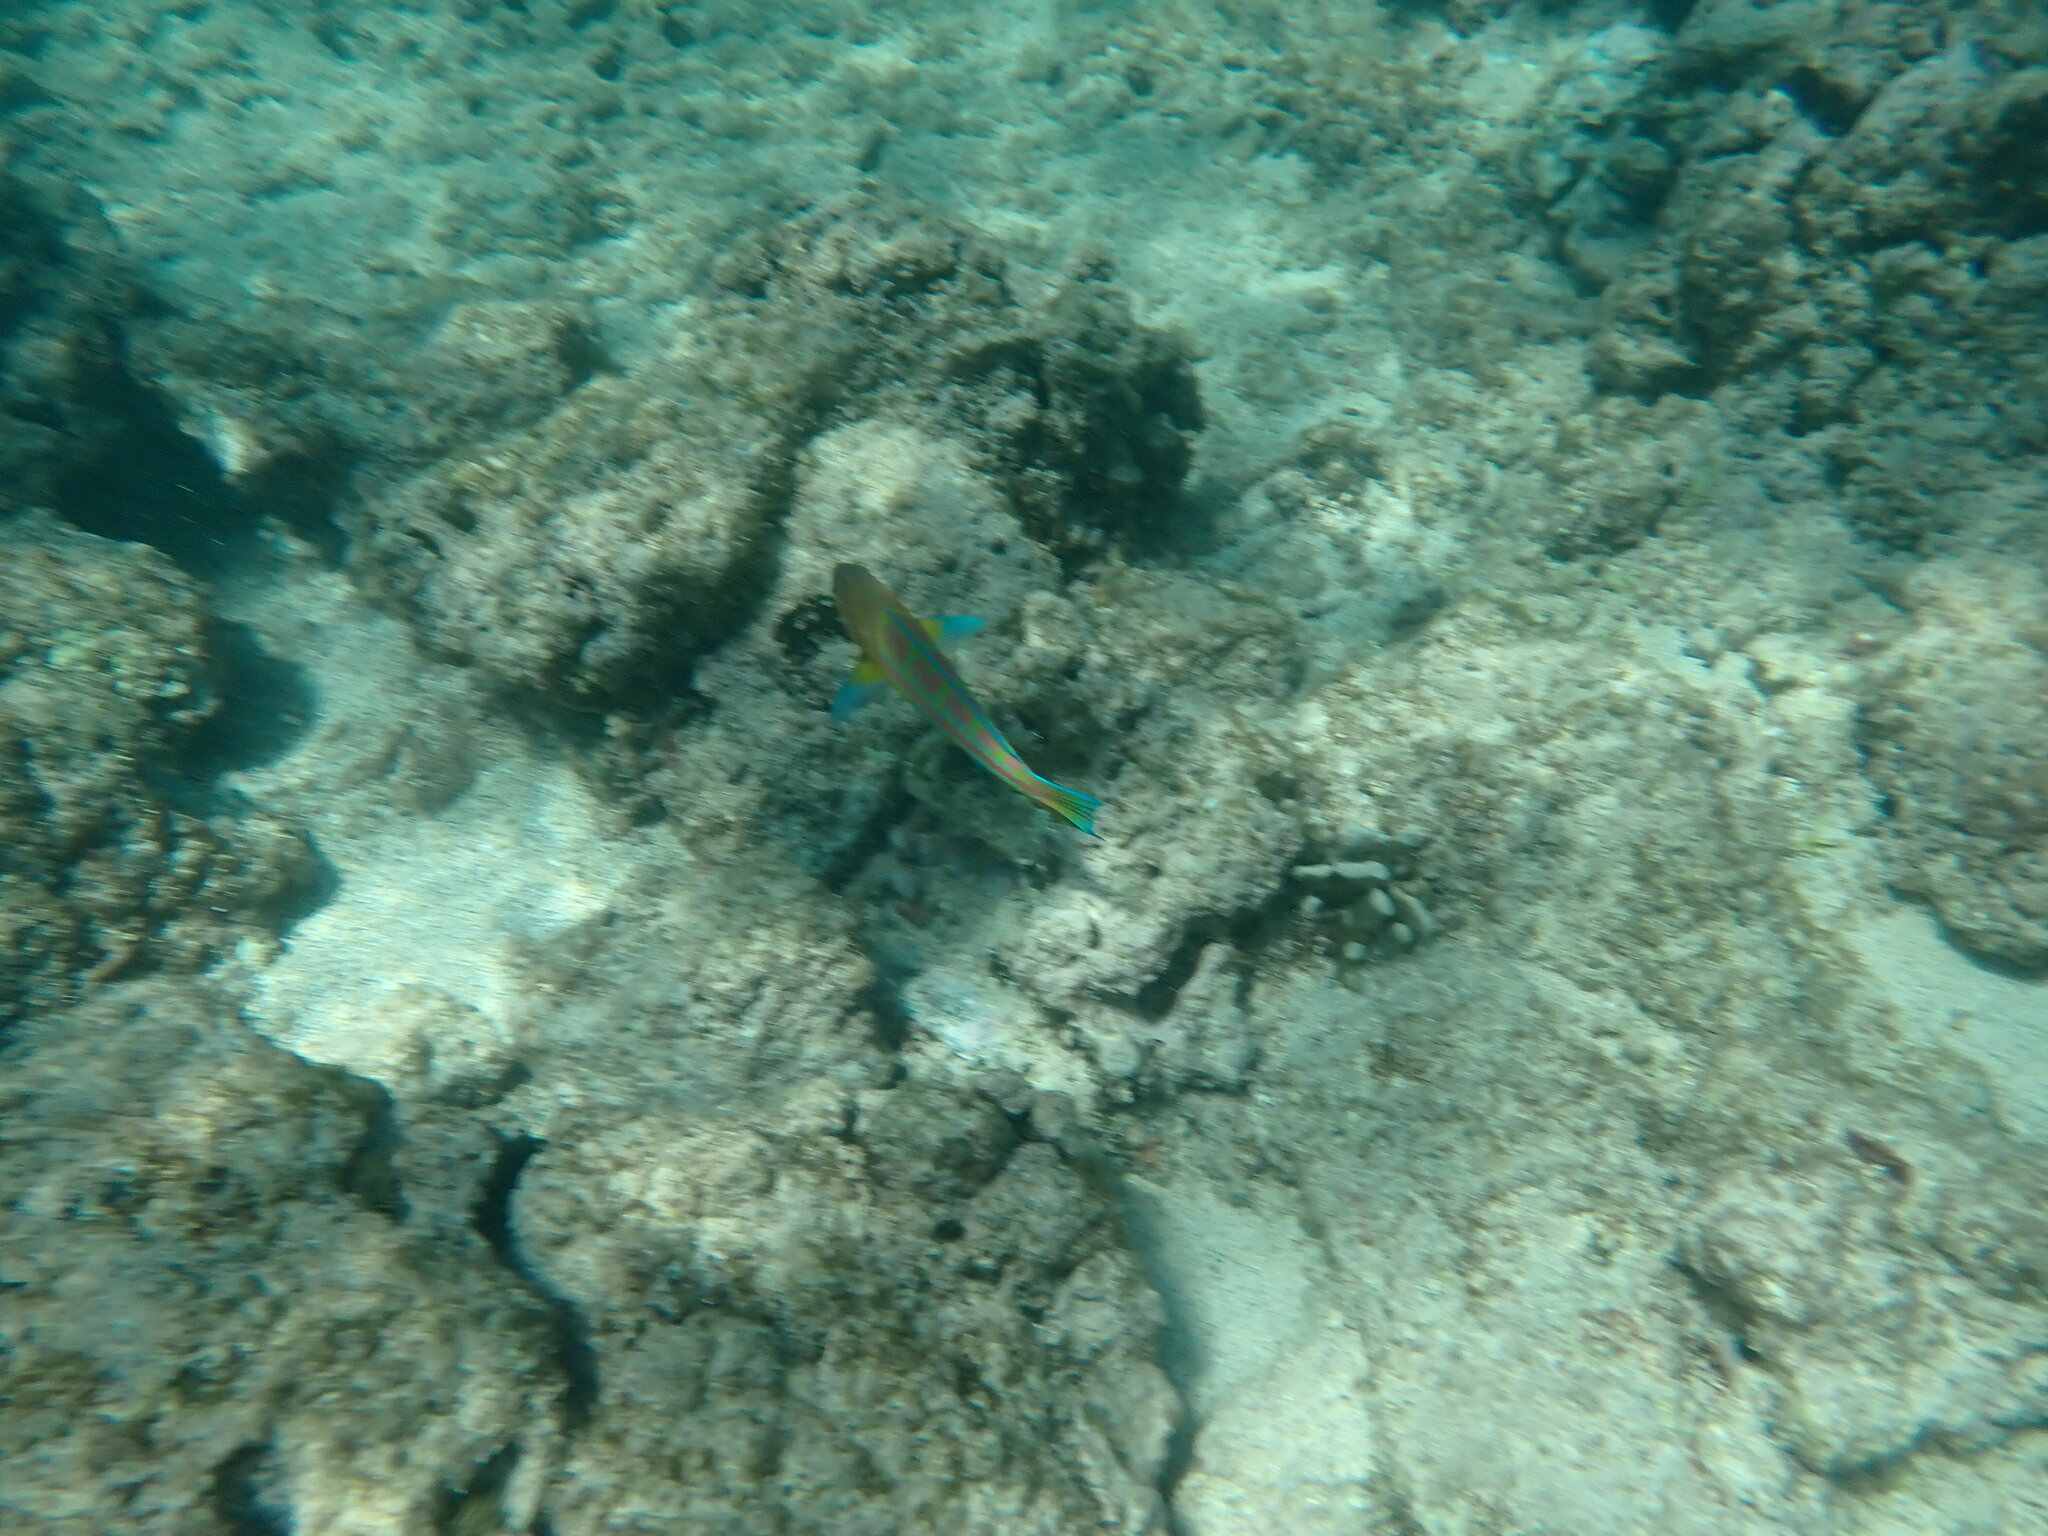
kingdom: Animalia
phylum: Chordata
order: Perciformes
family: Labridae
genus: Thalassoma
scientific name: Thalassoma trilobatum
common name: Christmas wrasse
